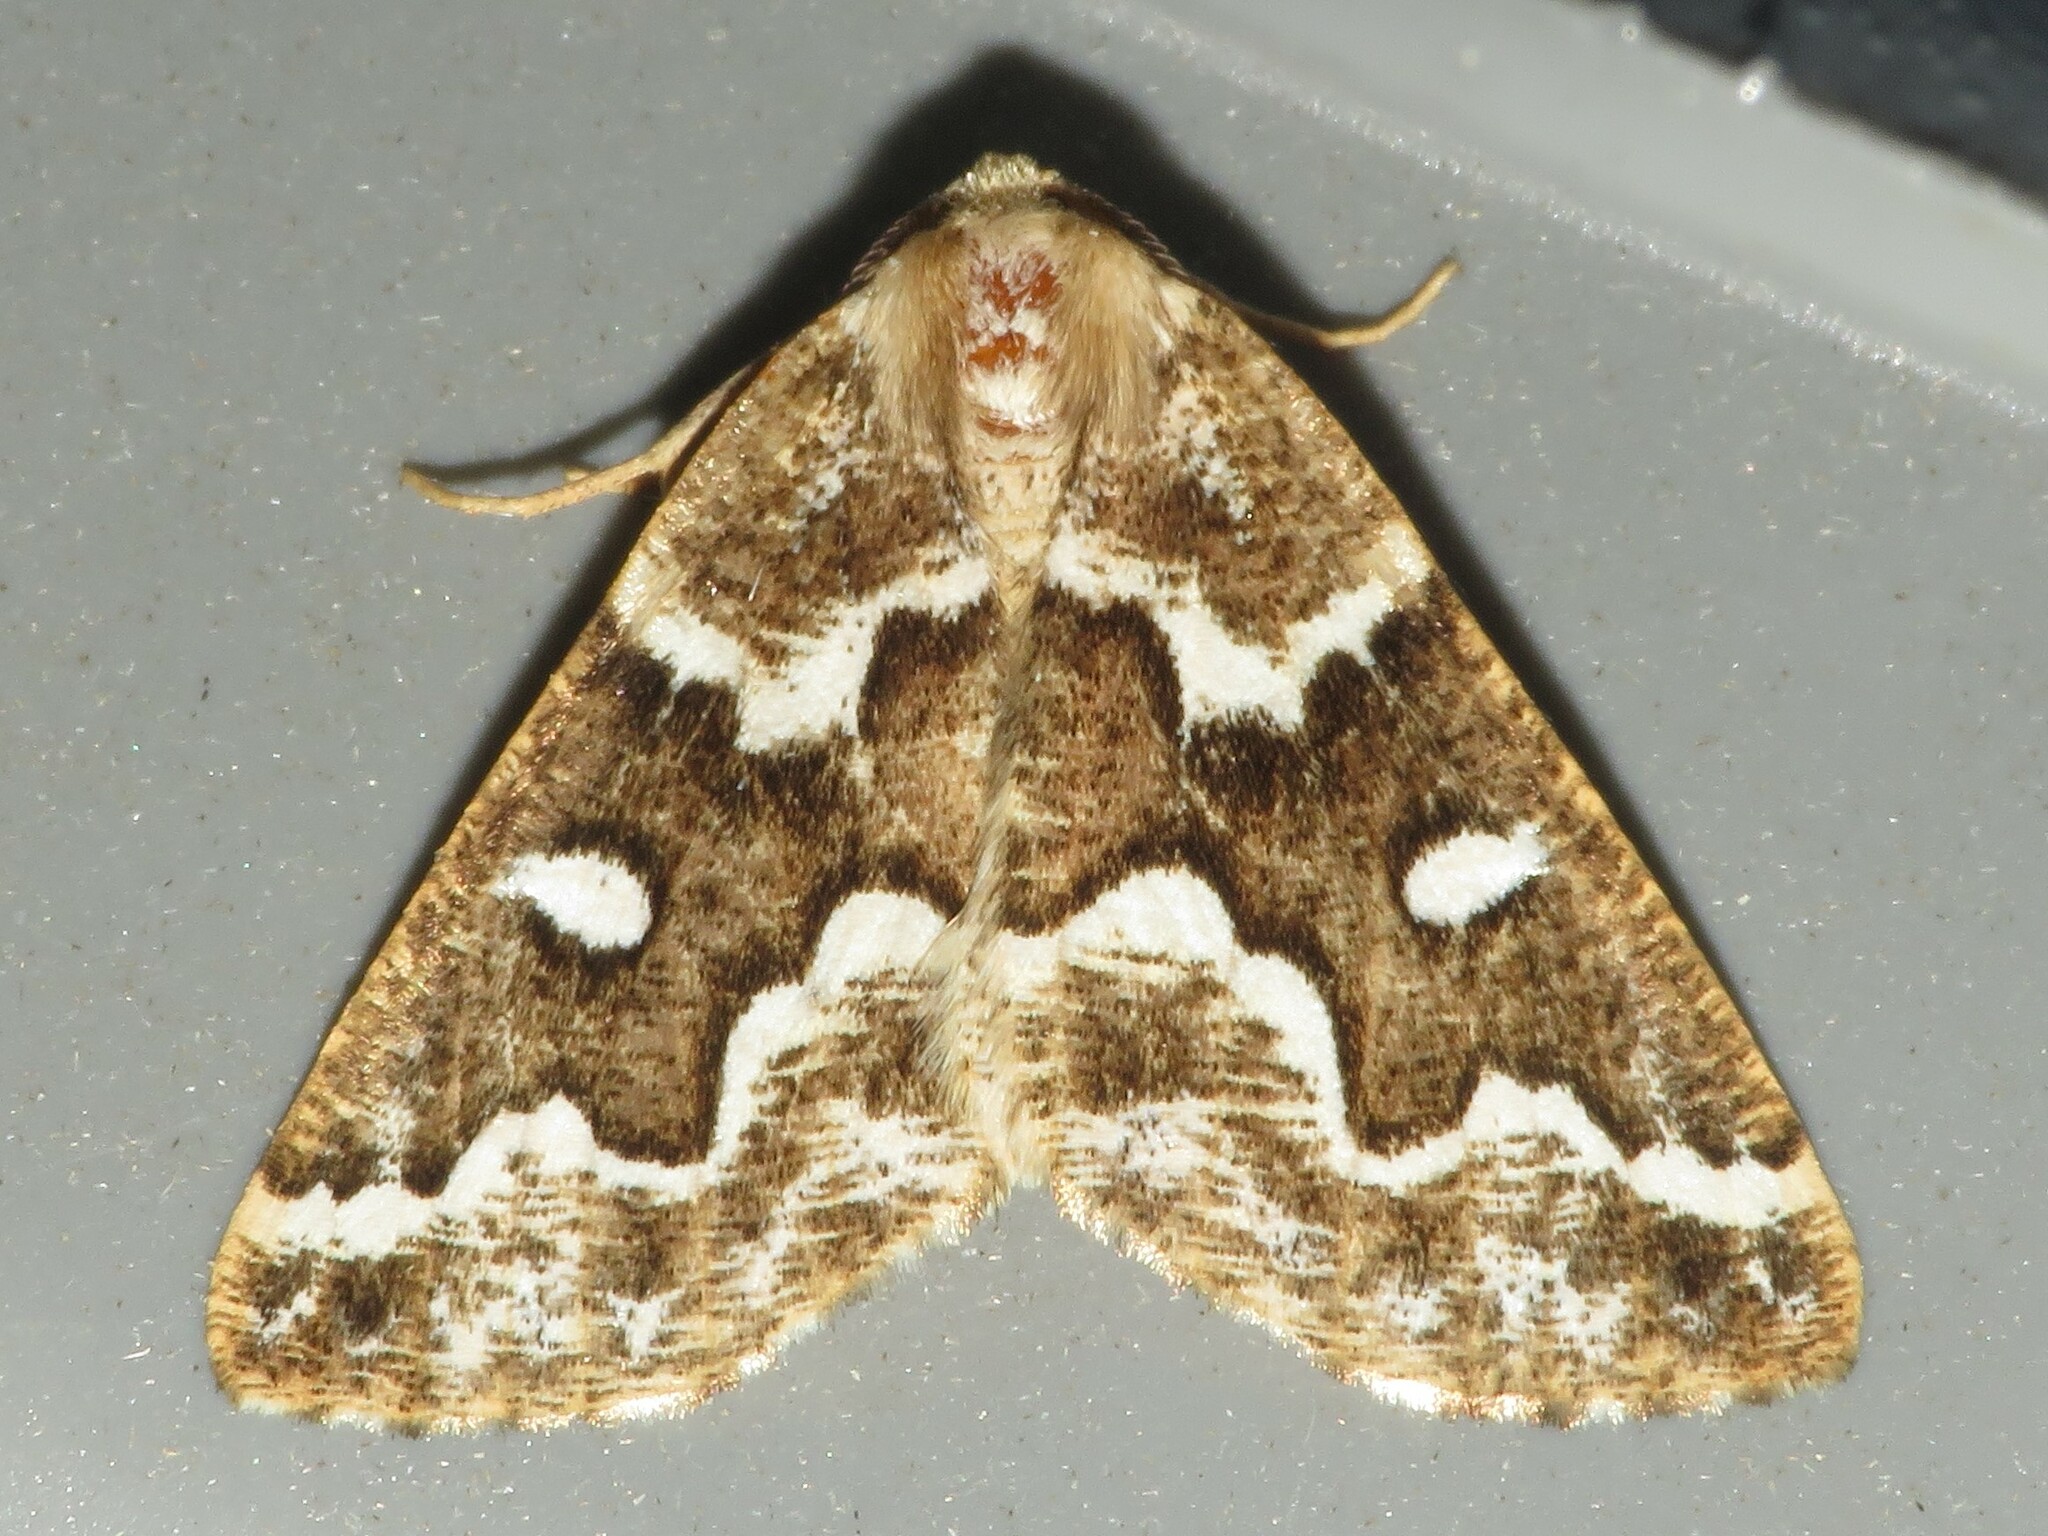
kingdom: Animalia
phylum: Arthropoda
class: Insecta
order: Lepidoptera
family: Geometridae
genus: Caripeta
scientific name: Caripeta divisata
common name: Gray spruce looper
